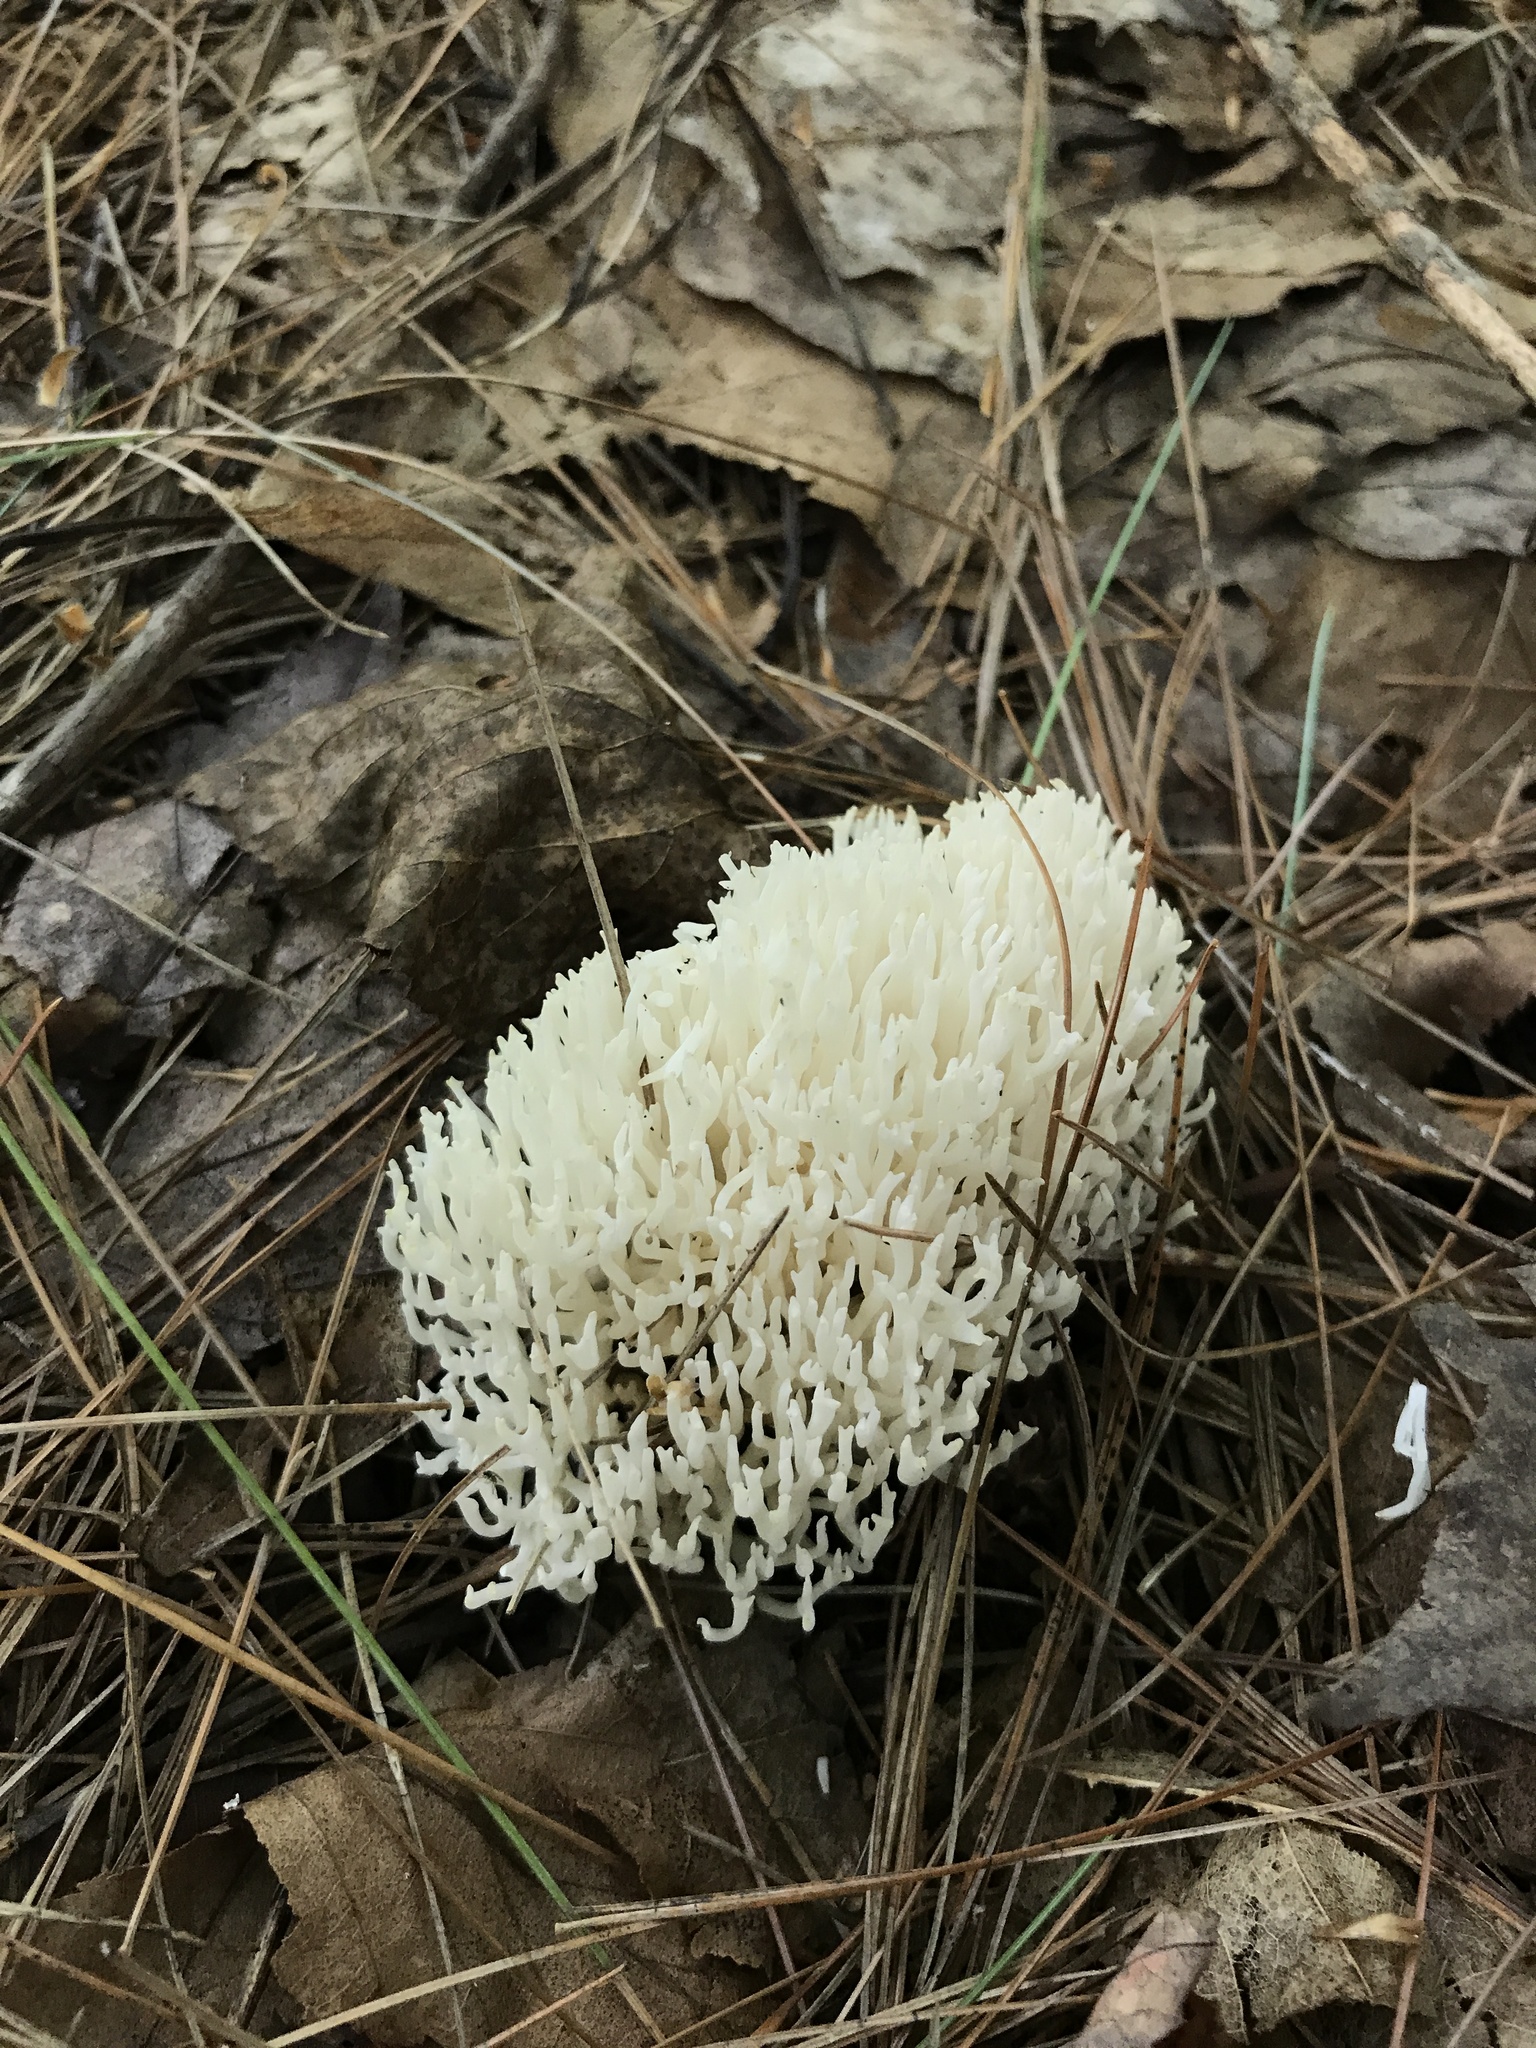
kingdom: Fungi
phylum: Basidiomycota
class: Agaricomycetes
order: Agaricales
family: Clavariaceae
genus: Ramariopsis
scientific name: Ramariopsis kunzei
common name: Ivory coral
